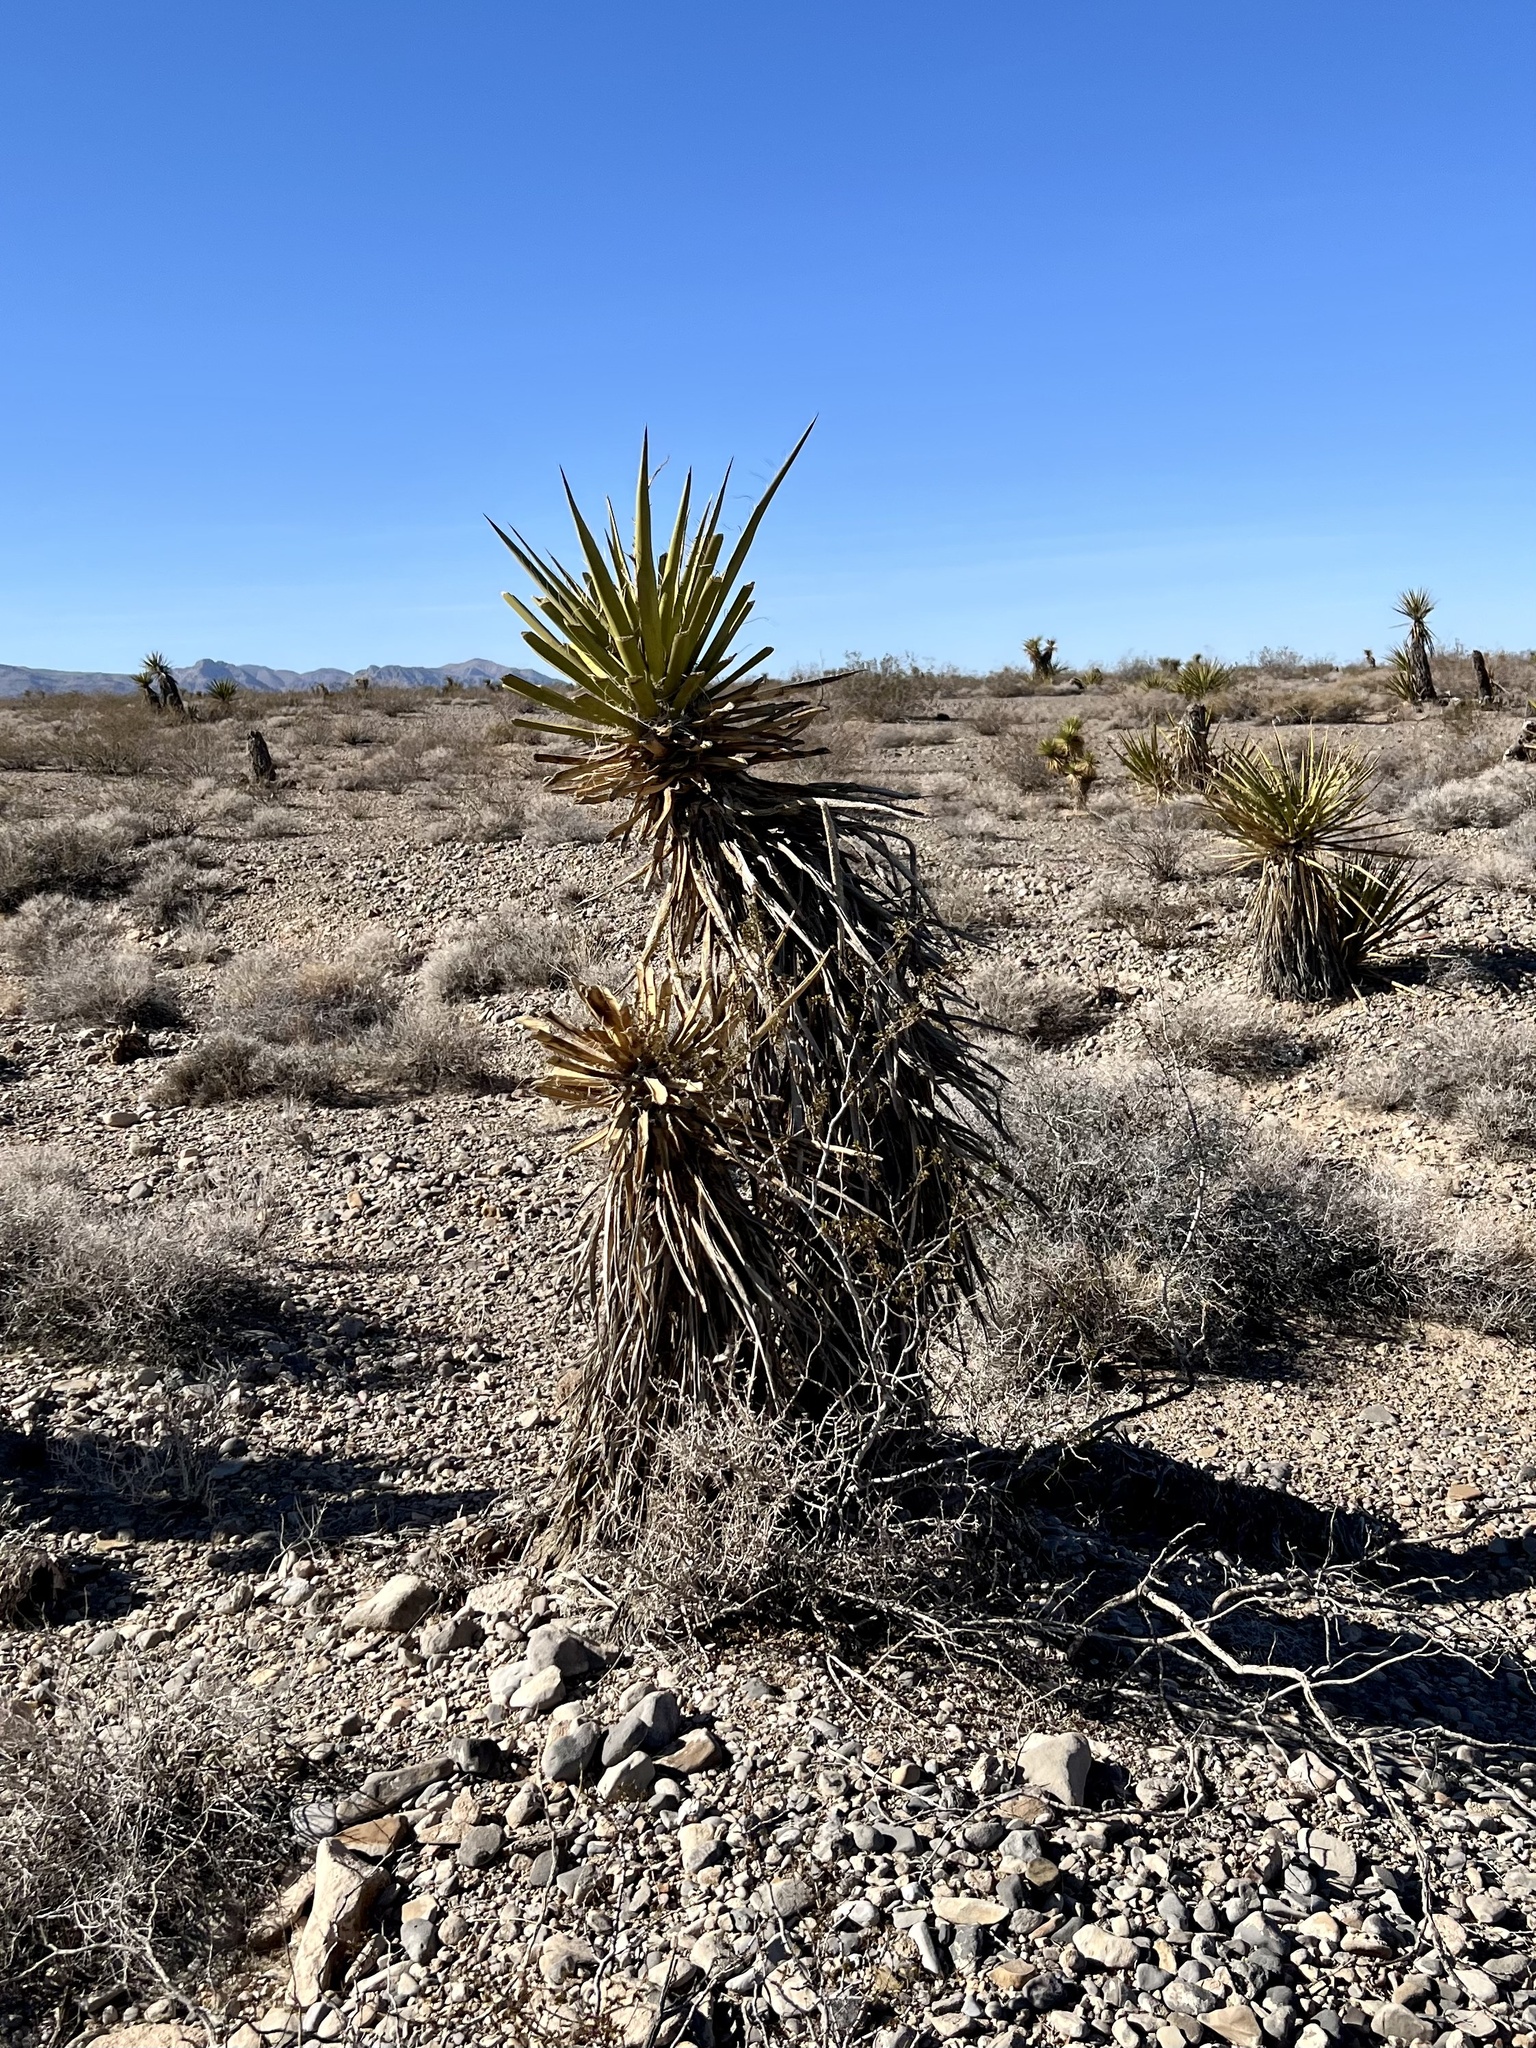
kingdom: Plantae
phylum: Tracheophyta
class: Liliopsida
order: Asparagales
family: Asparagaceae
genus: Yucca
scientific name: Yucca schidigera
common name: Mojave yucca
